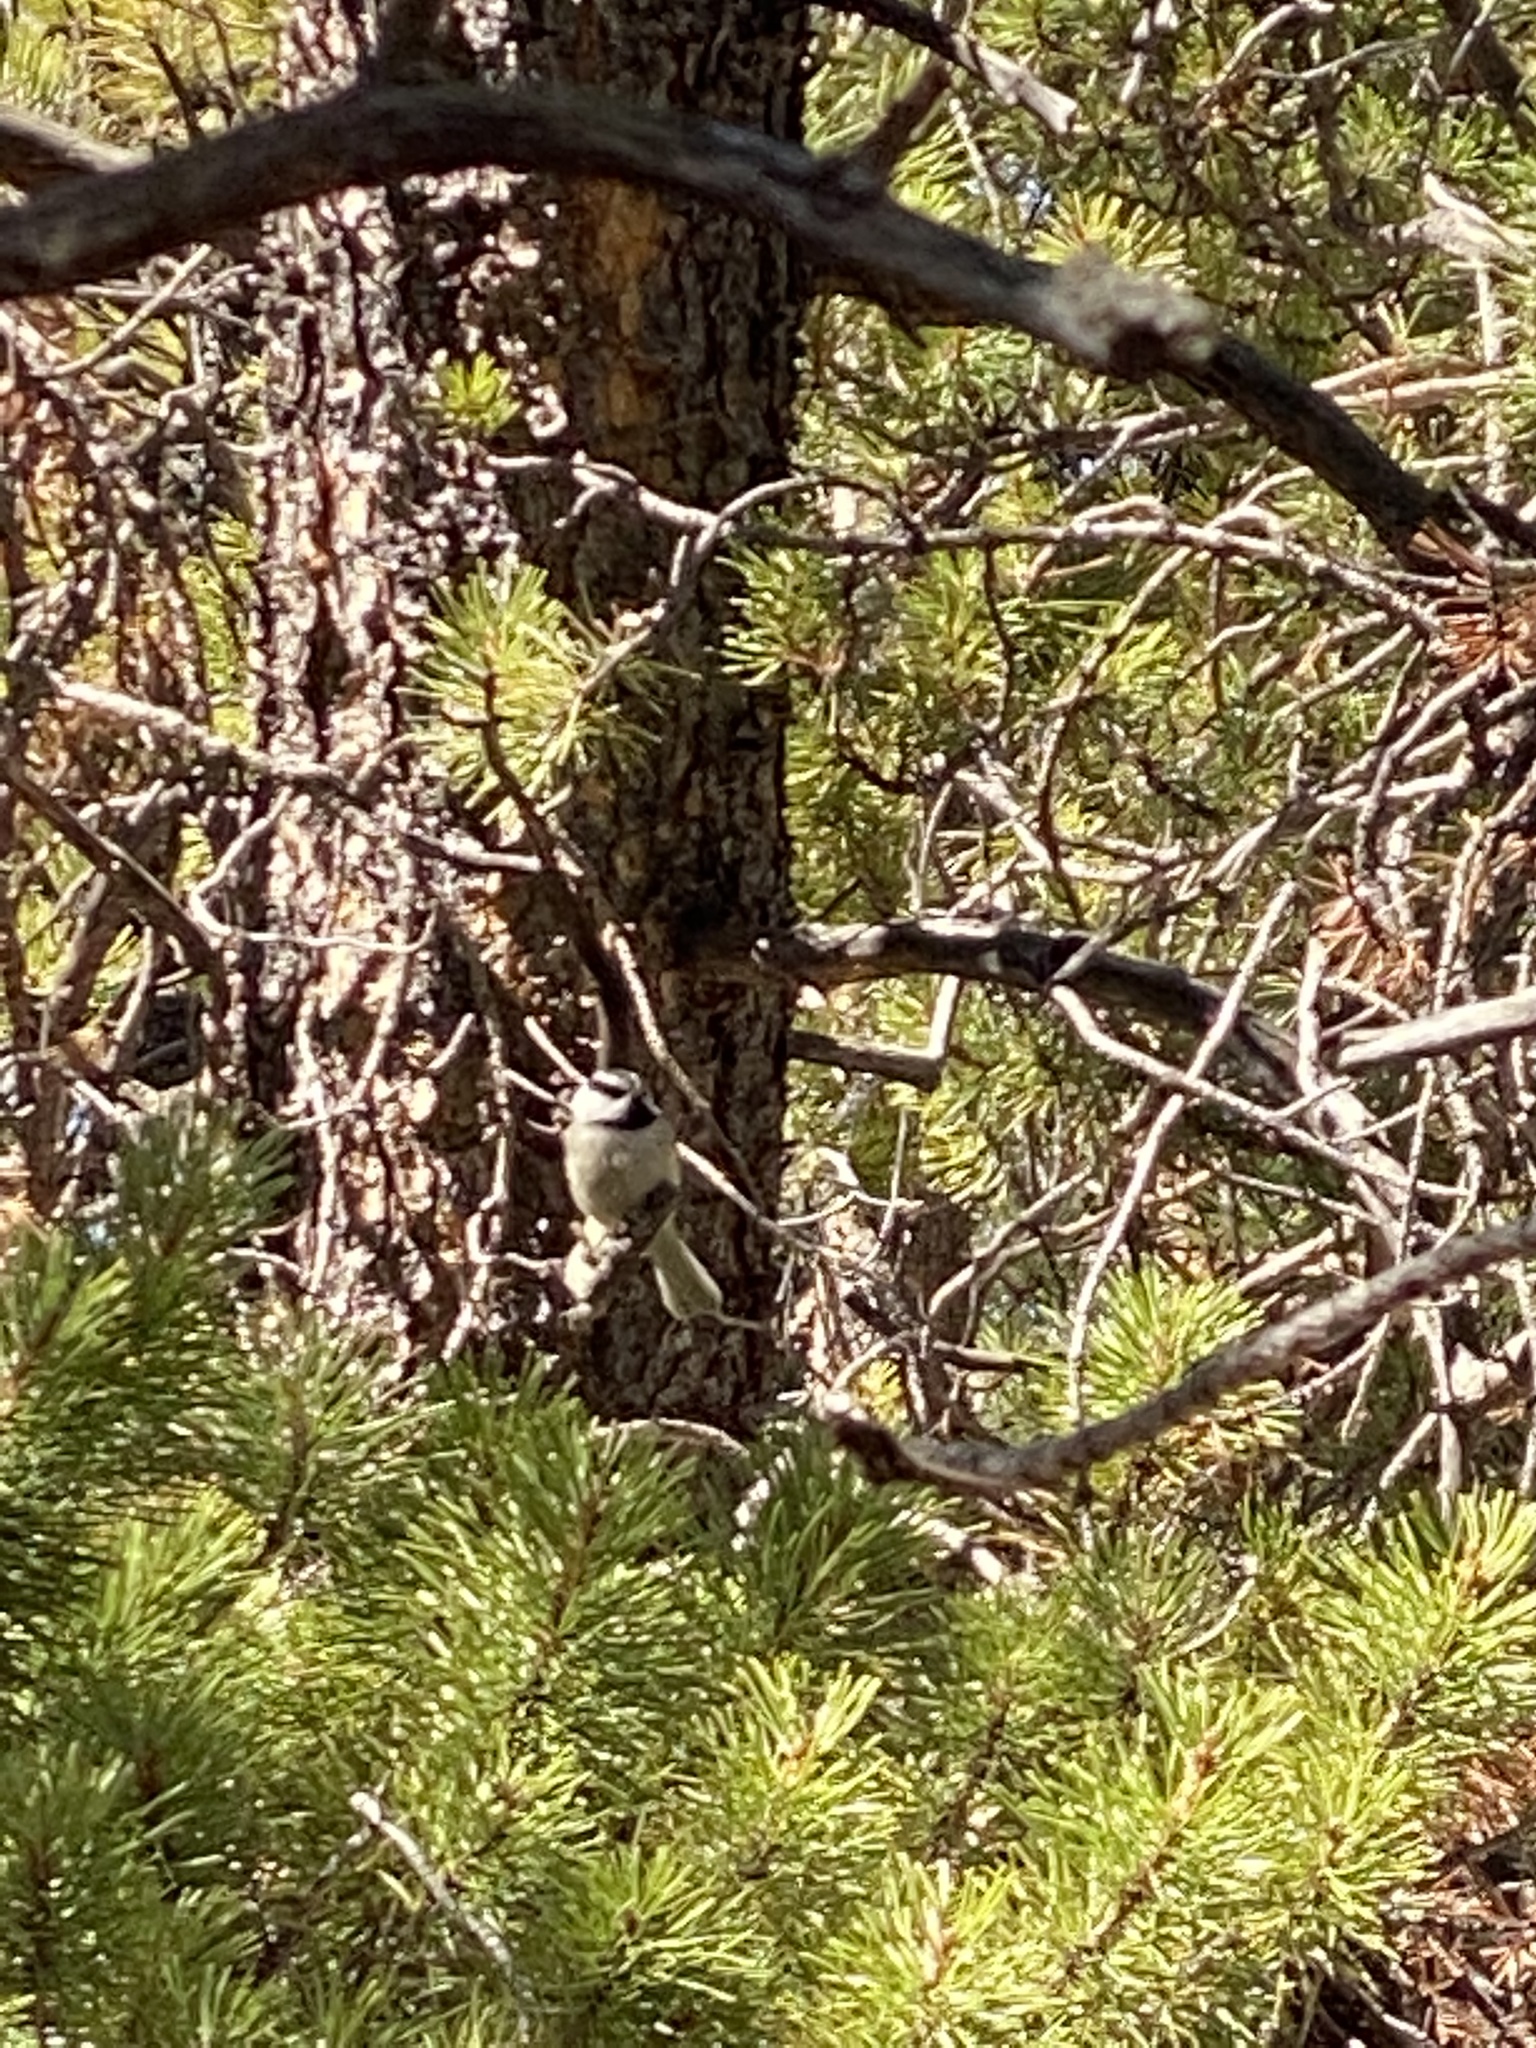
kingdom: Animalia
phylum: Chordata
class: Aves
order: Passeriformes
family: Paridae
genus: Poecile
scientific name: Poecile gambeli
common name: Mountain chickadee
